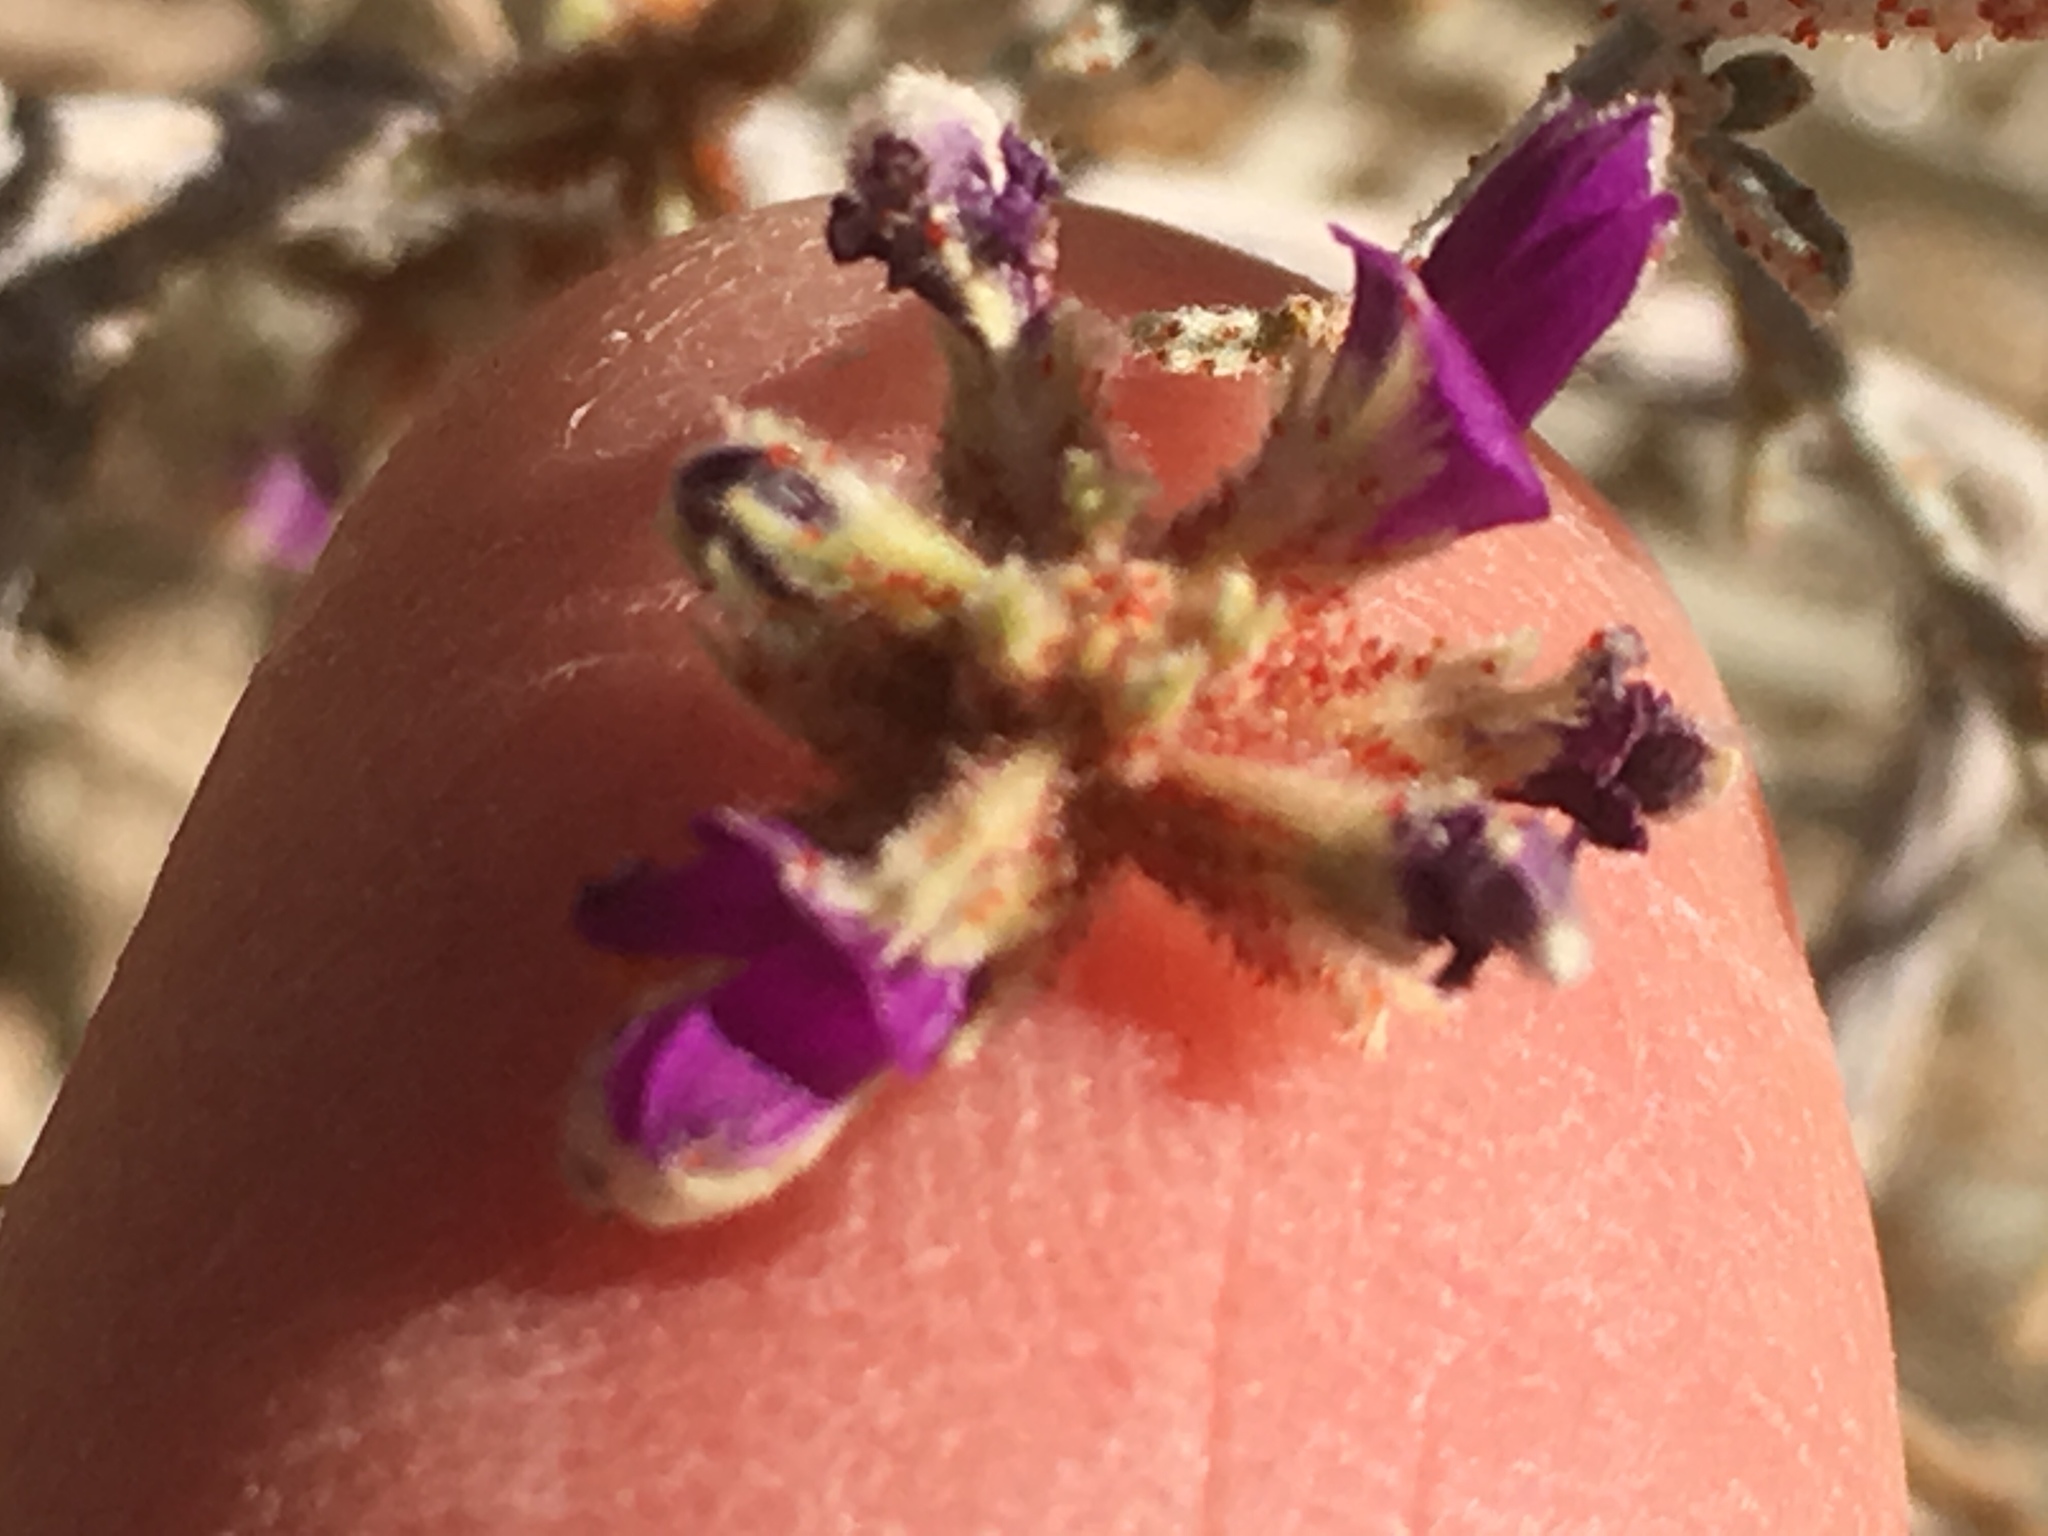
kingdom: Plantae
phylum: Tracheophyta
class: Magnoliopsida
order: Fabales
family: Fabaceae
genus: Psorothamnus
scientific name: Psorothamnus emoryi
